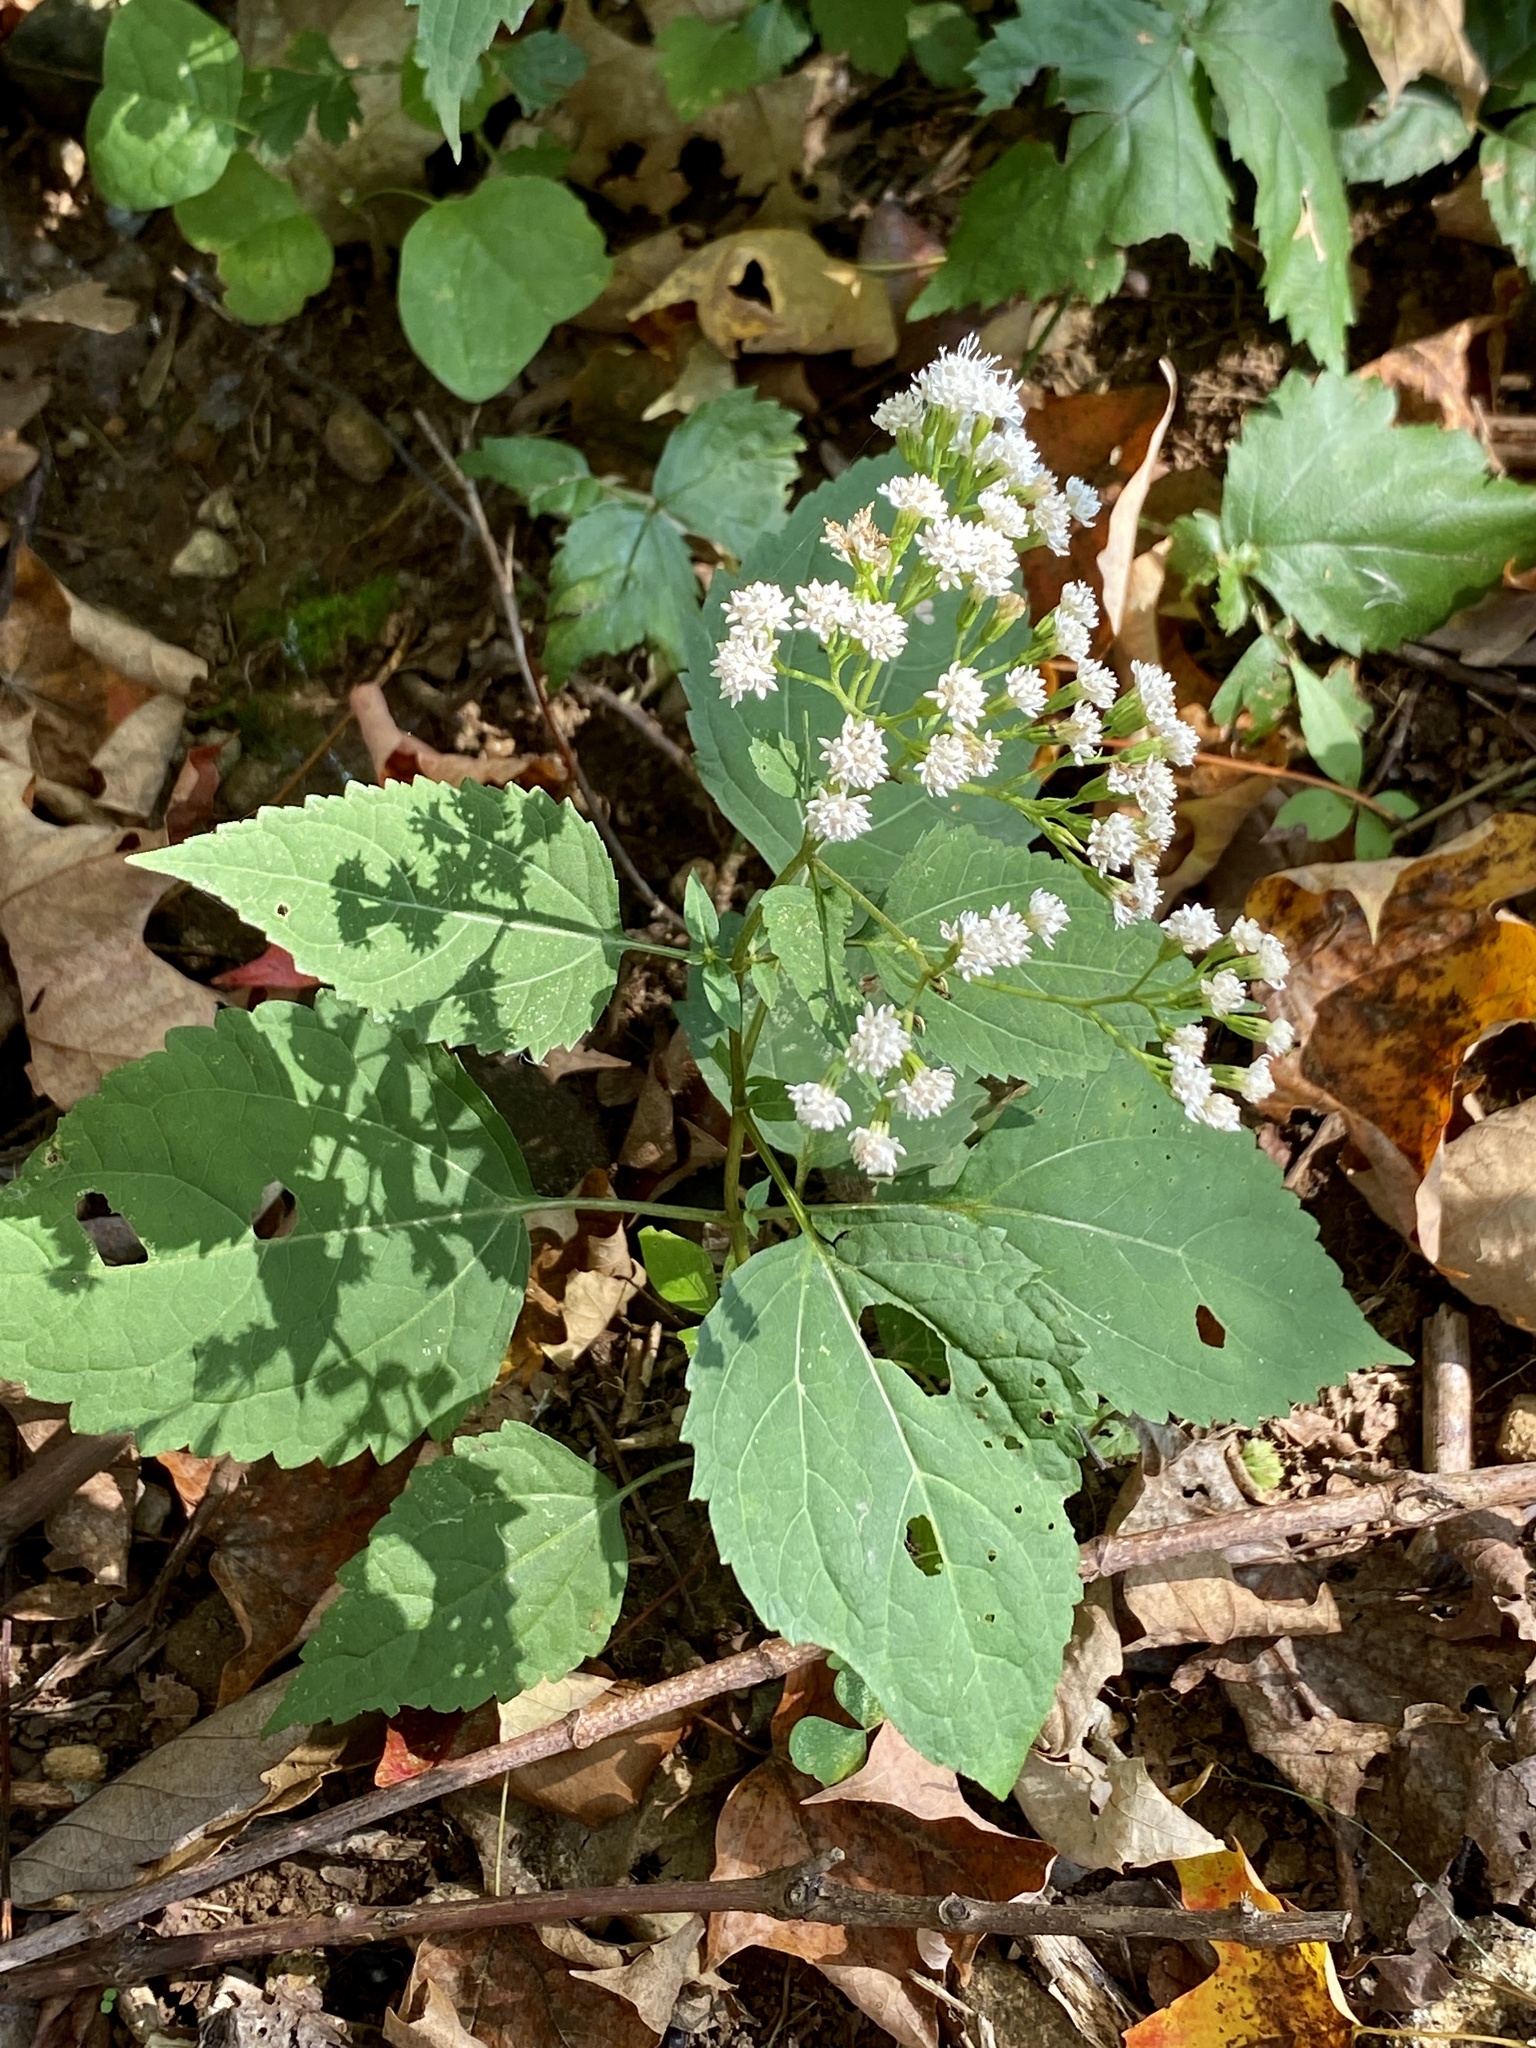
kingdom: Plantae
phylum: Tracheophyta
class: Magnoliopsida
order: Asterales
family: Asteraceae
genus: Ageratina
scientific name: Ageratina altissima
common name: White snakeroot
